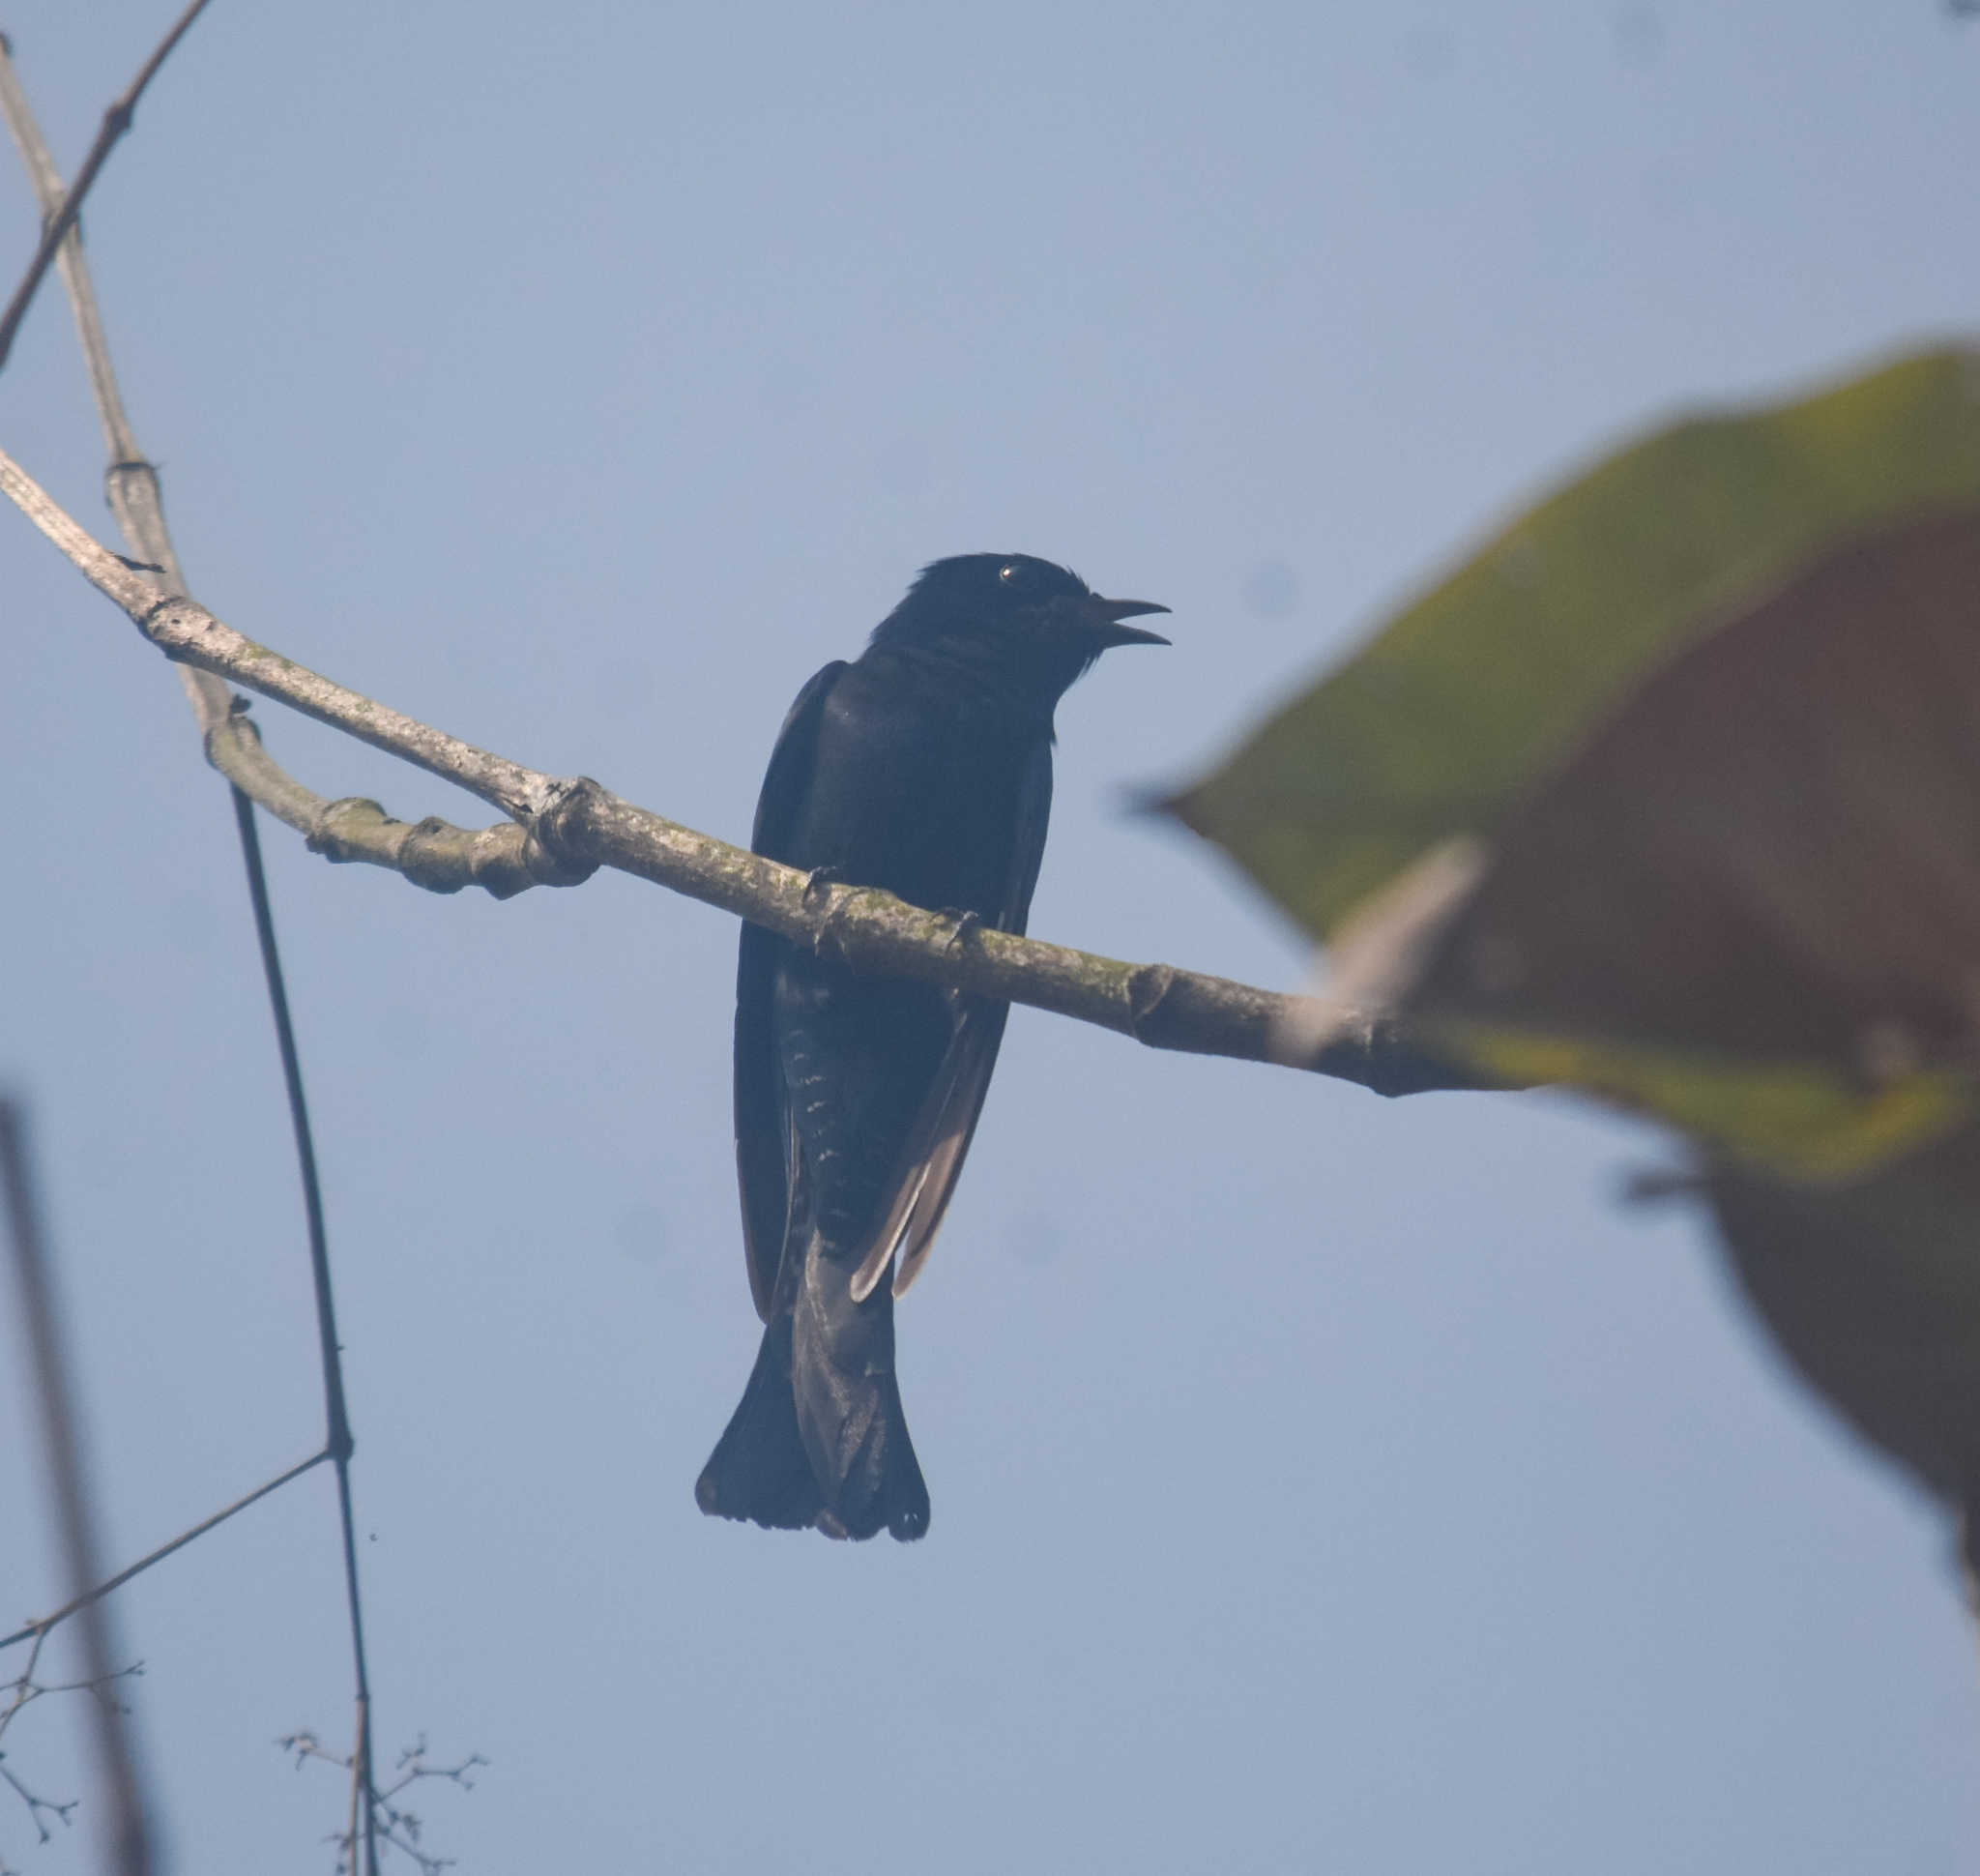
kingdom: Animalia
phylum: Chordata
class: Aves
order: Cuculiformes
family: Cuculidae
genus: Surniculus
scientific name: Surniculus lugubris
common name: Square-tailed drongo-cuckoo
